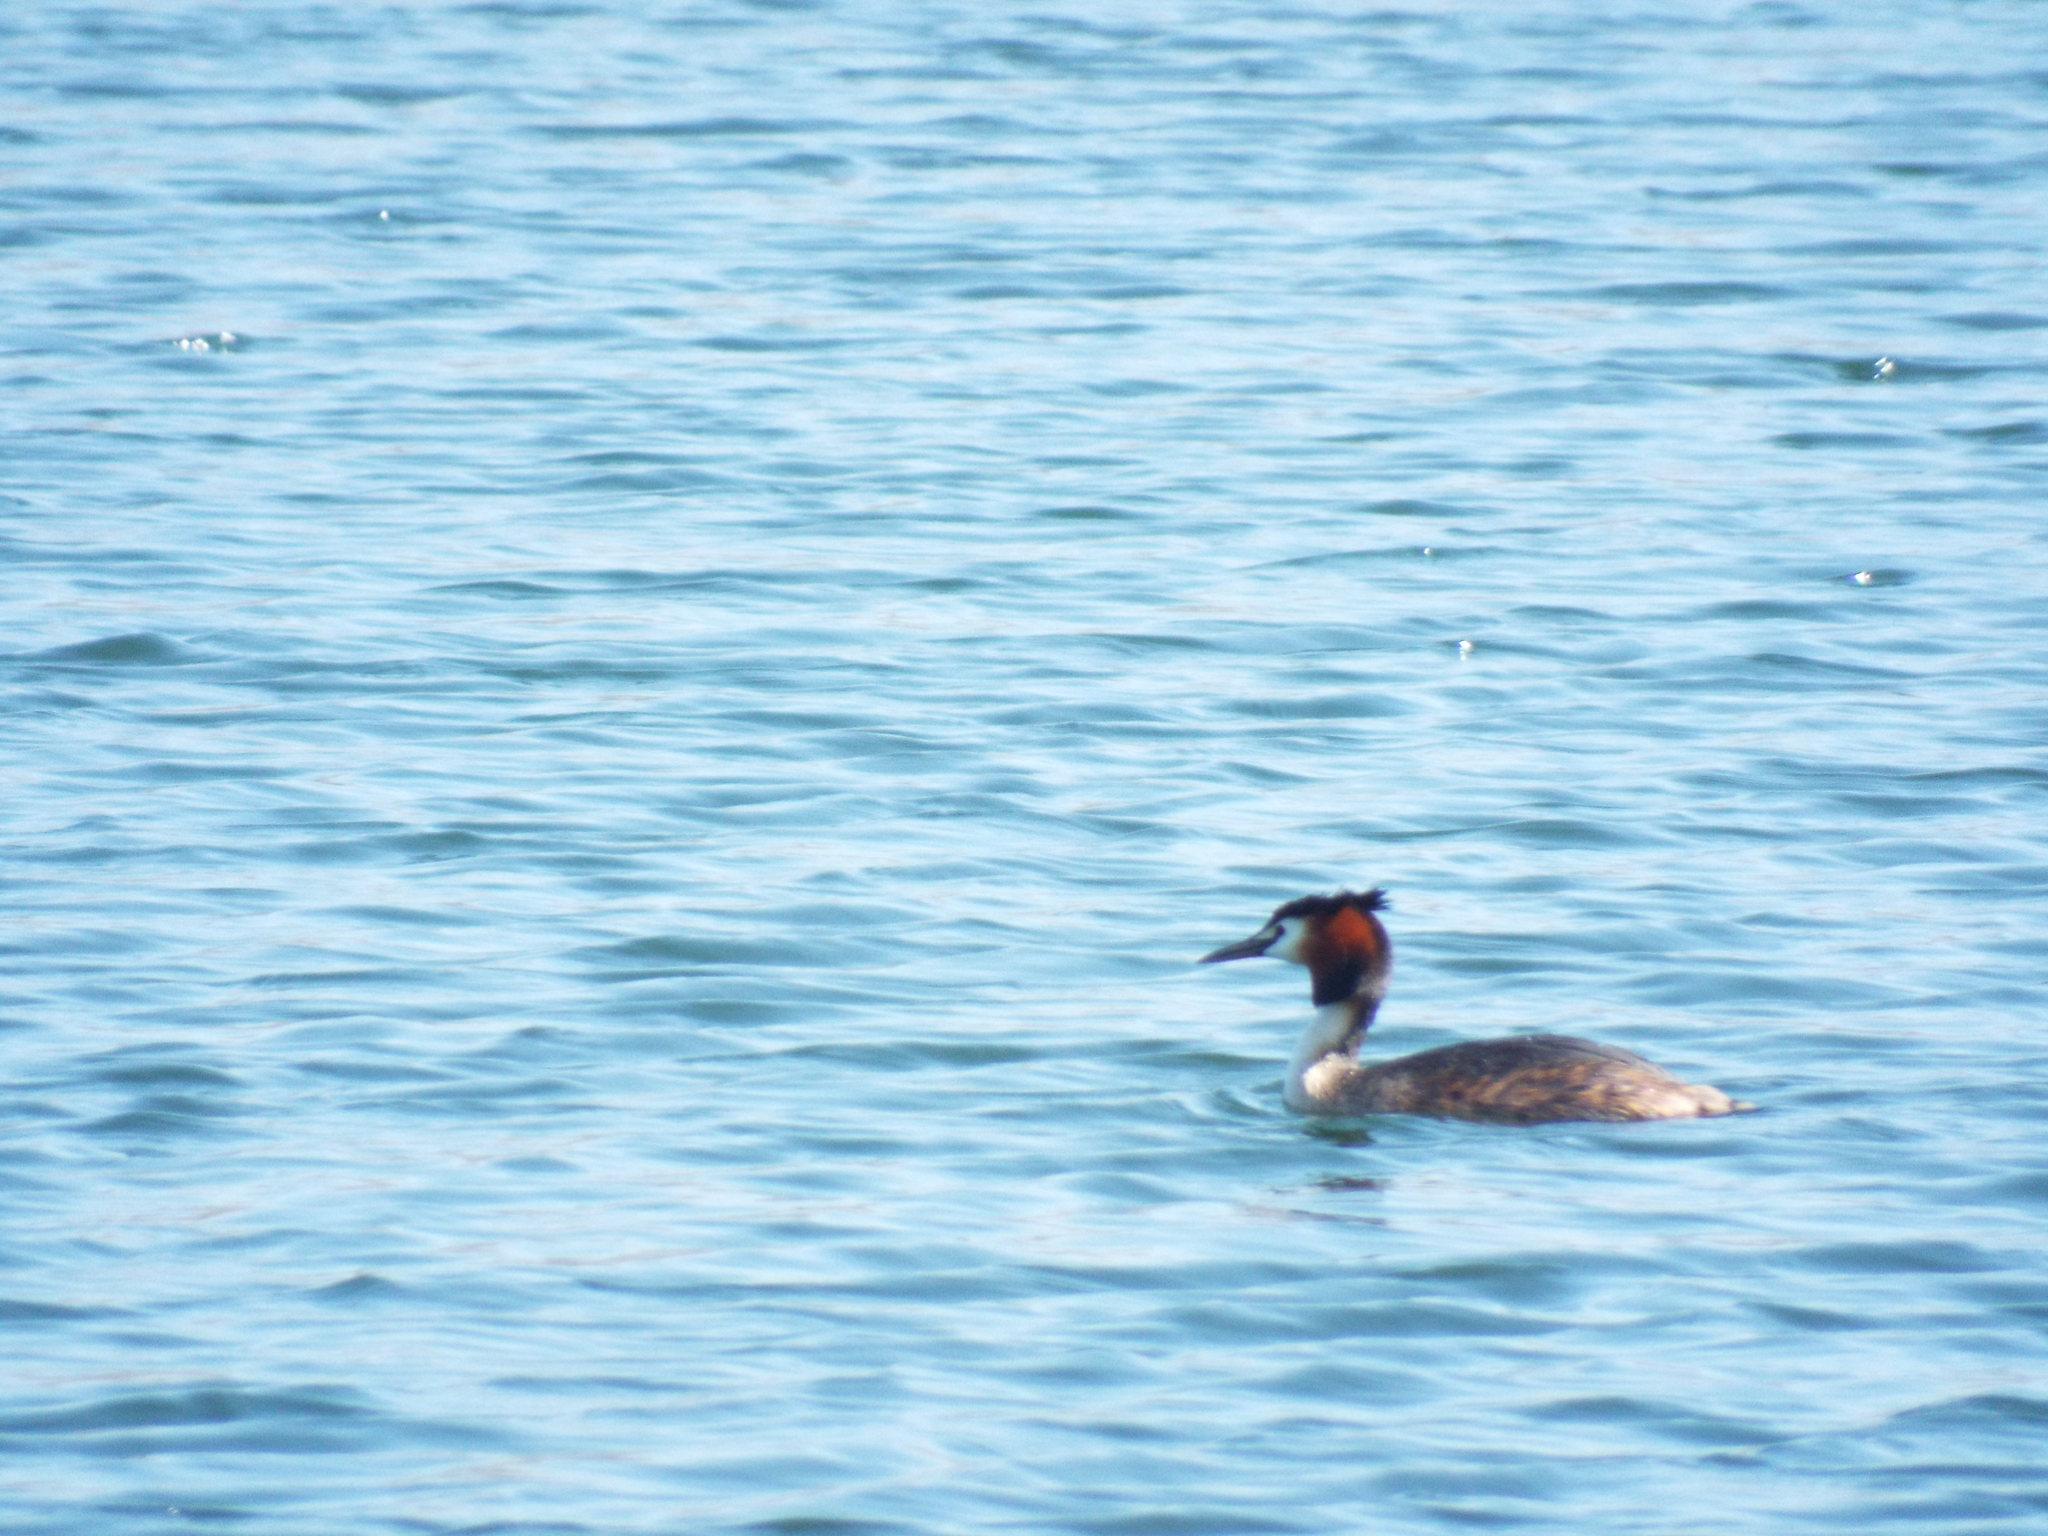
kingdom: Animalia
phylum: Chordata
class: Aves
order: Podicipediformes
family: Podicipedidae
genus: Podiceps
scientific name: Podiceps cristatus
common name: Great crested grebe
